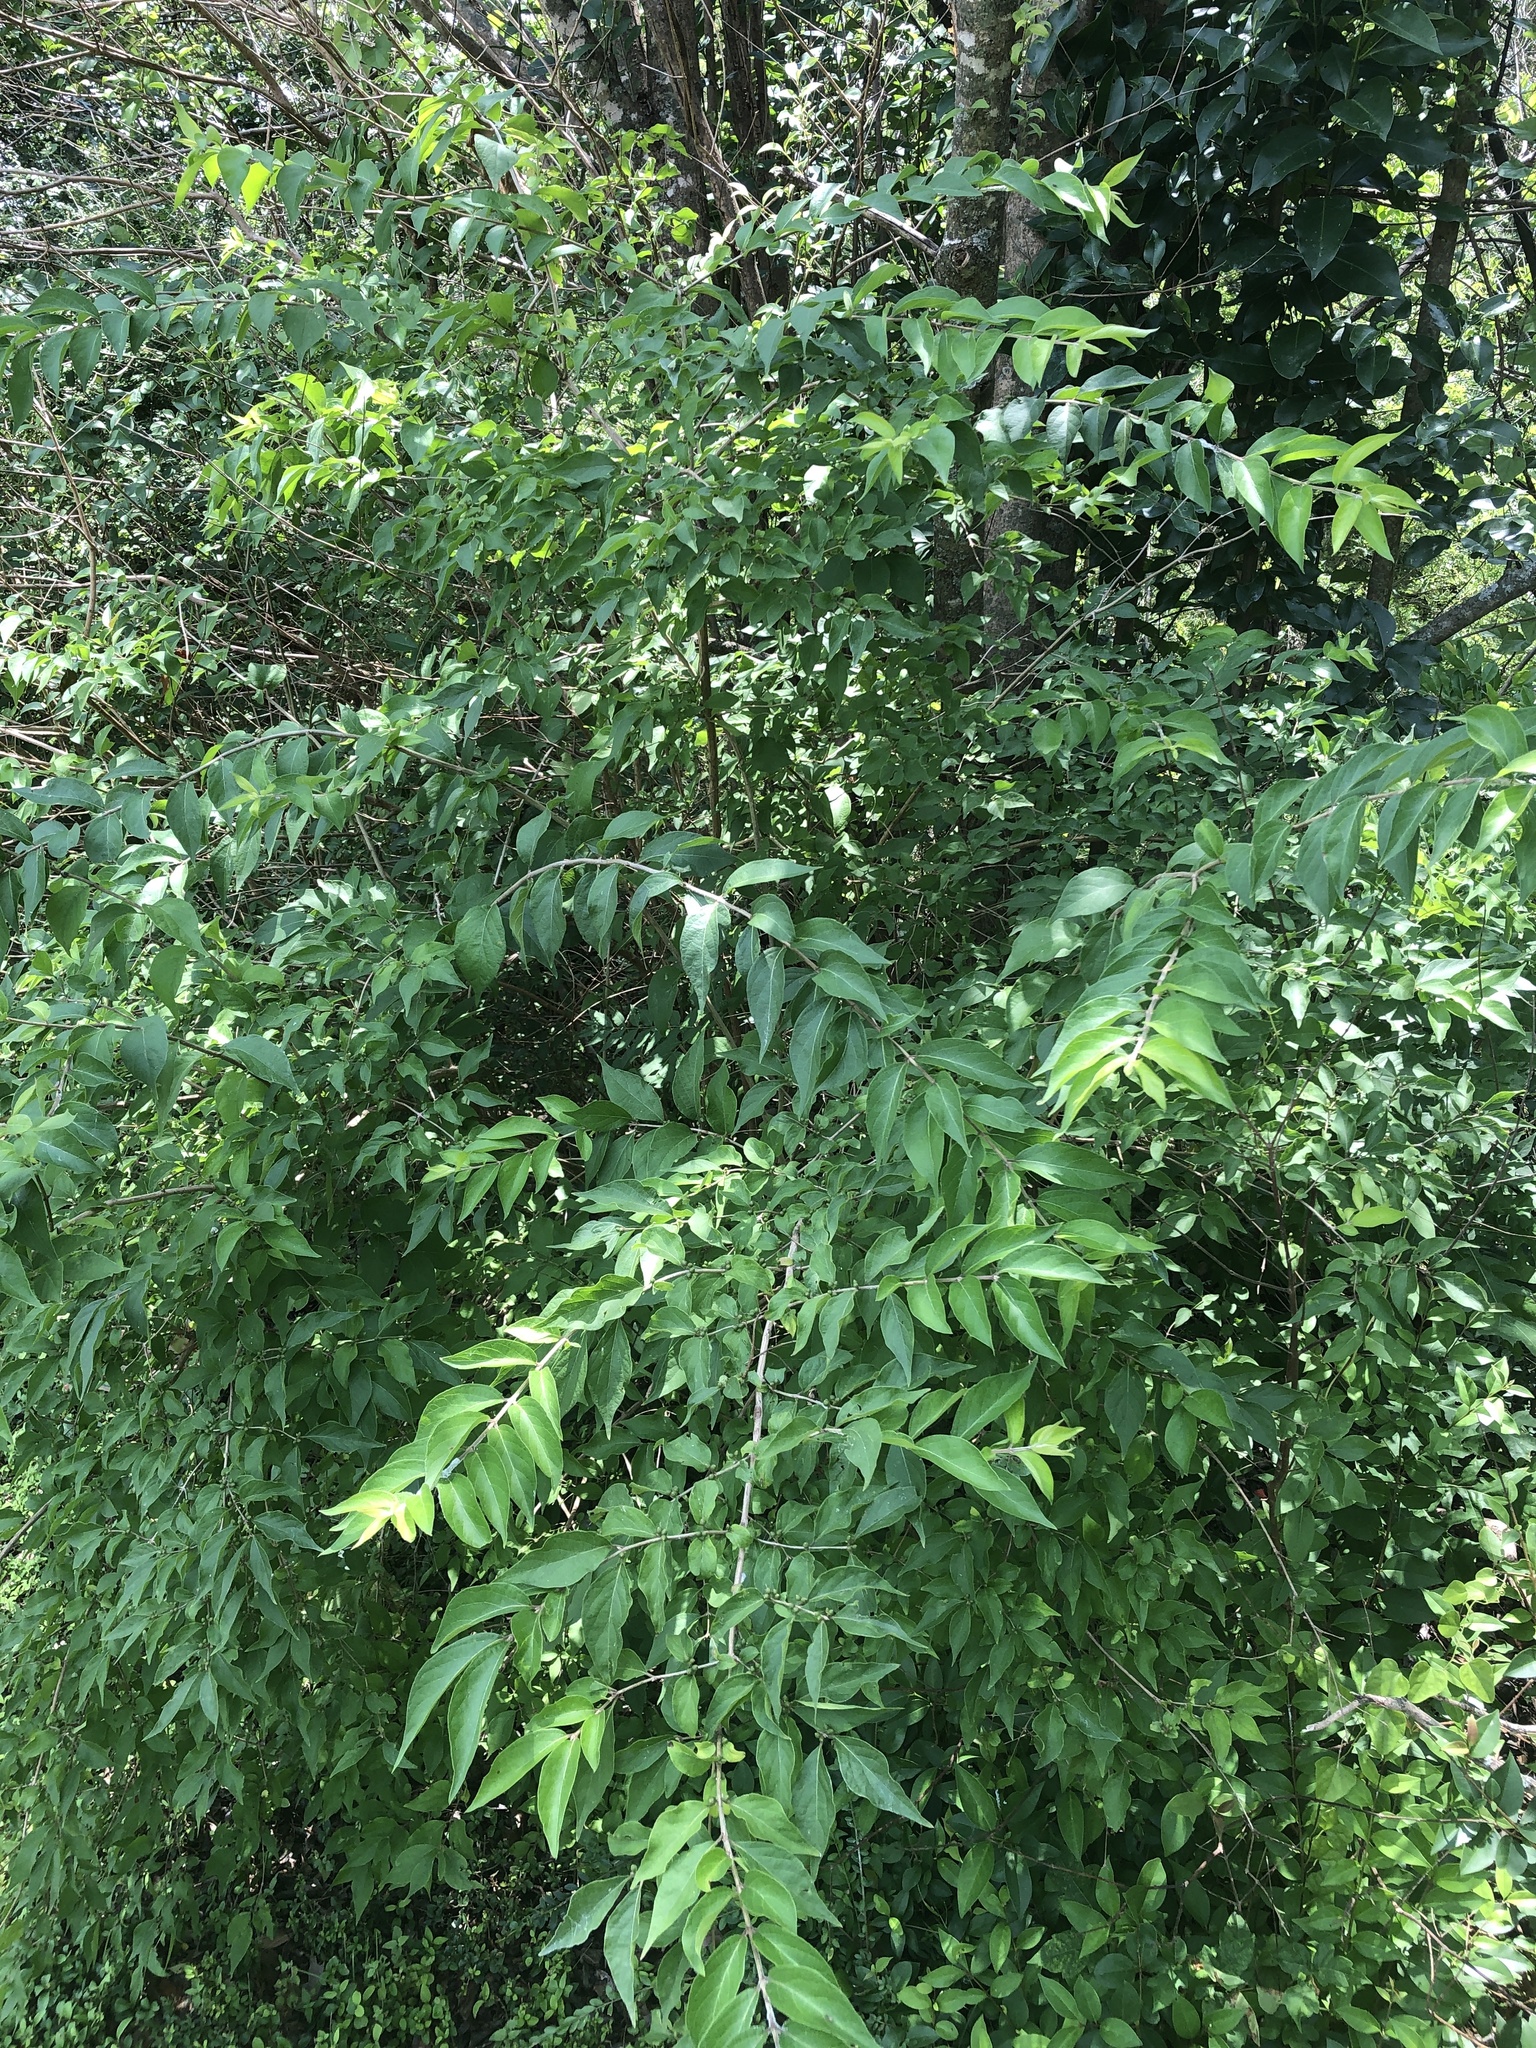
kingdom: Plantae
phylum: Tracheophyta
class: Magnoliopsida
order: Dipsacales
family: Caprifoliaceae
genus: Lonicera
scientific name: Lonicera maackii
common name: Amur honeysuckle
